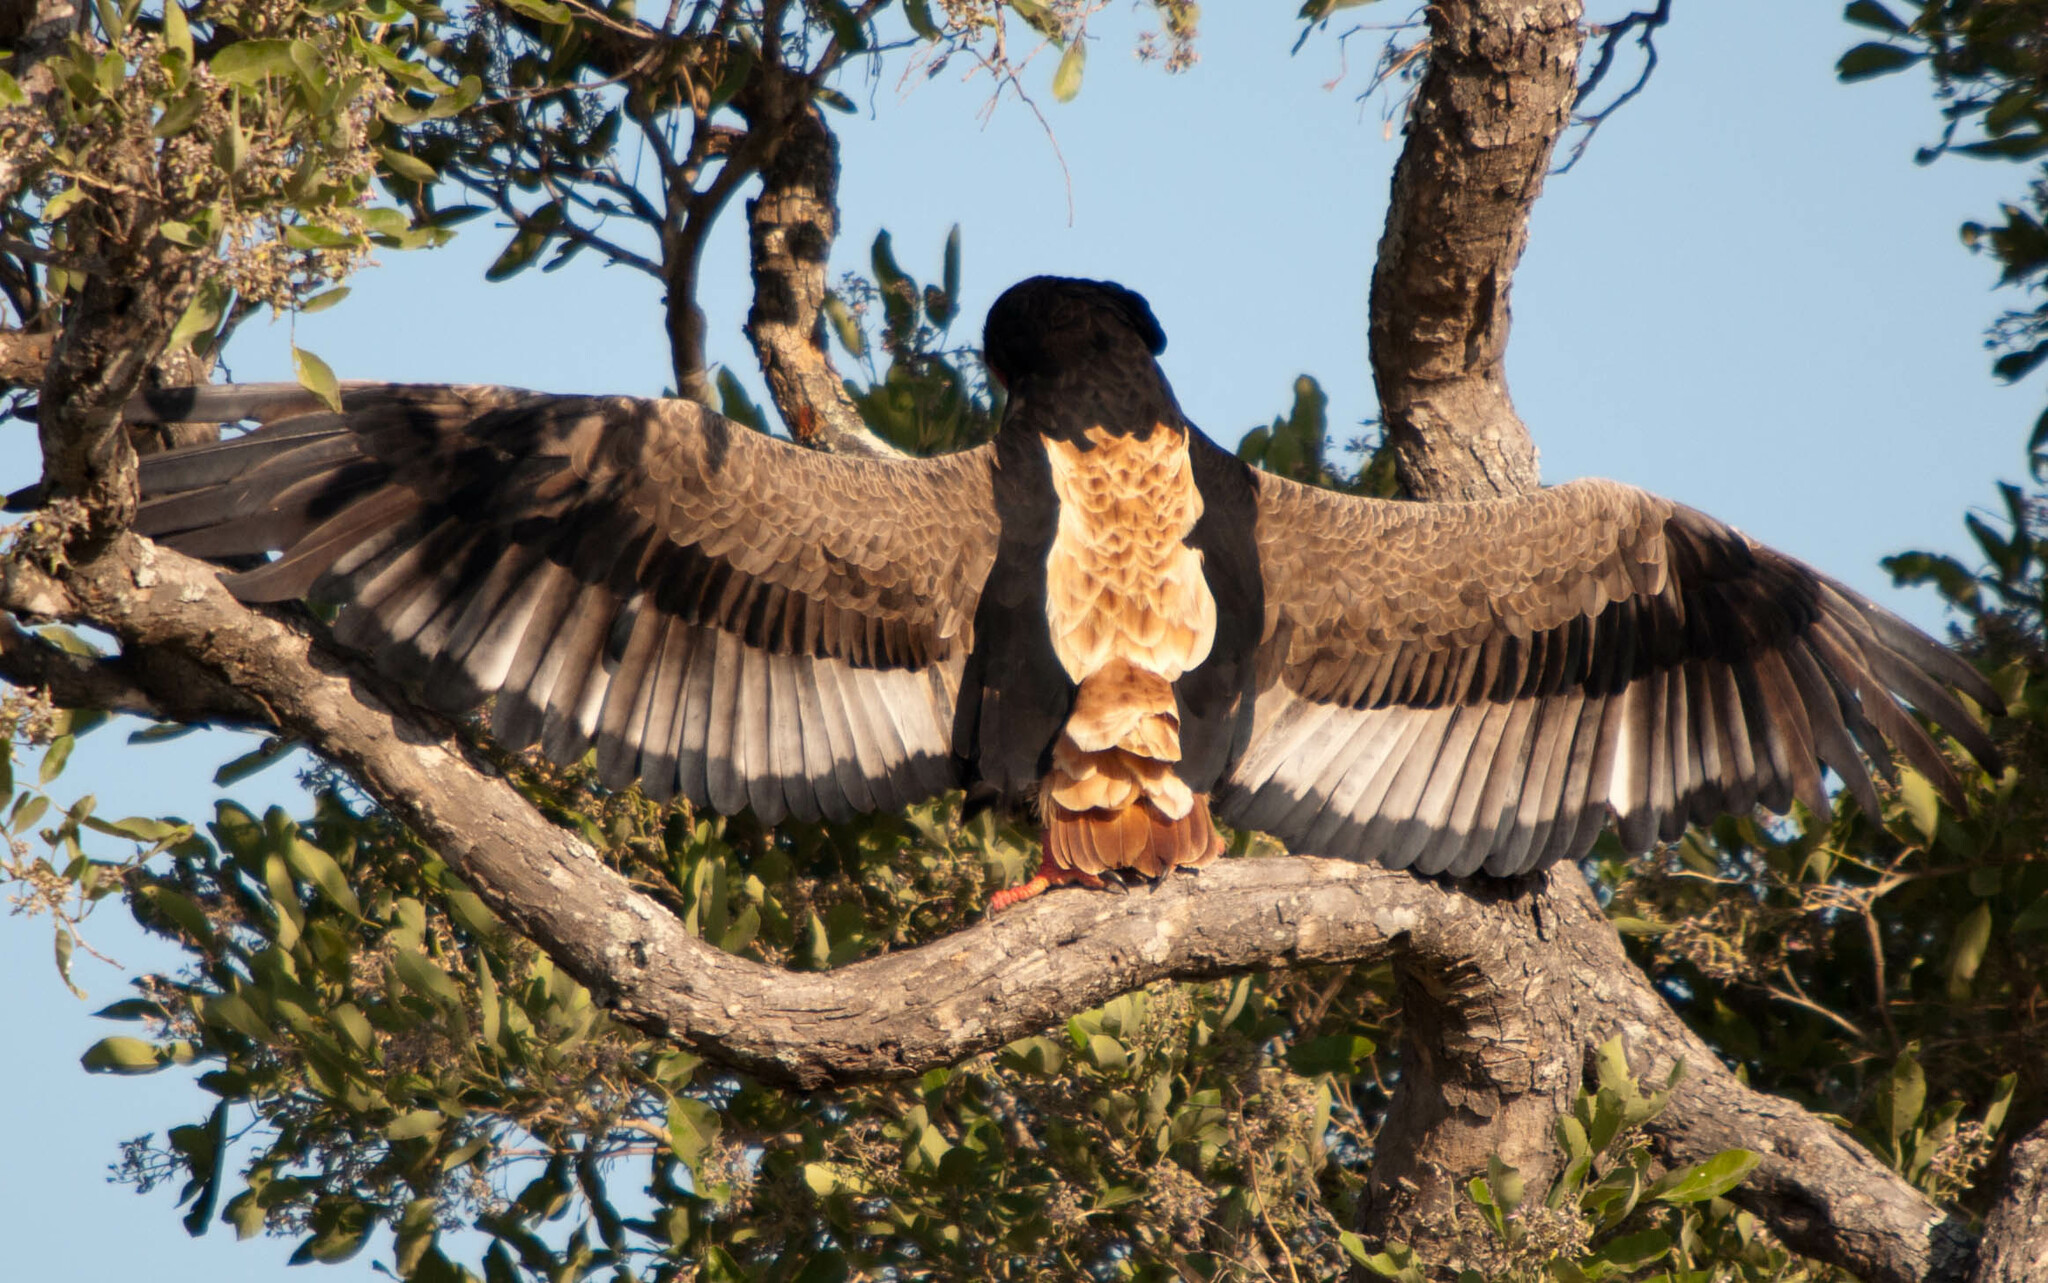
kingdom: Animalia
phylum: Chordata
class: Aves
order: Accipitriformes
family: Accipitridae
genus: Terathopius
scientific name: Terathopius ecaudatus
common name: Bateleur
